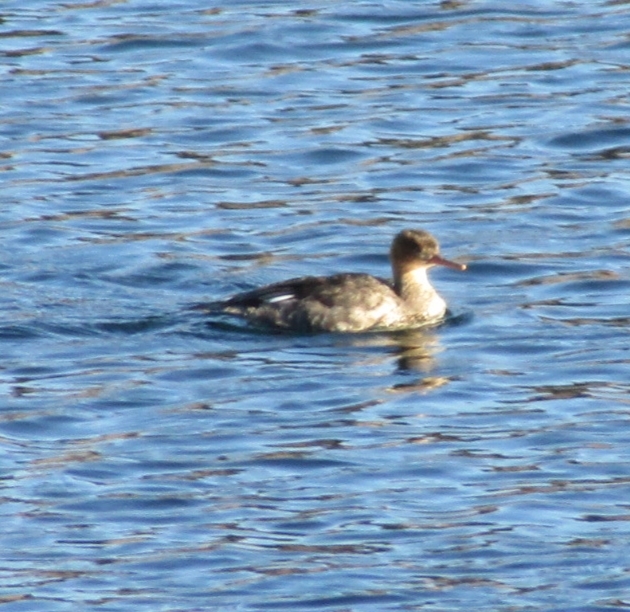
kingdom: Animalia
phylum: Chordata
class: Aves
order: Anseriformes
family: Anatidae
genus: Mergus
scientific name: Mergus serrator
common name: Red-breasted merganser
